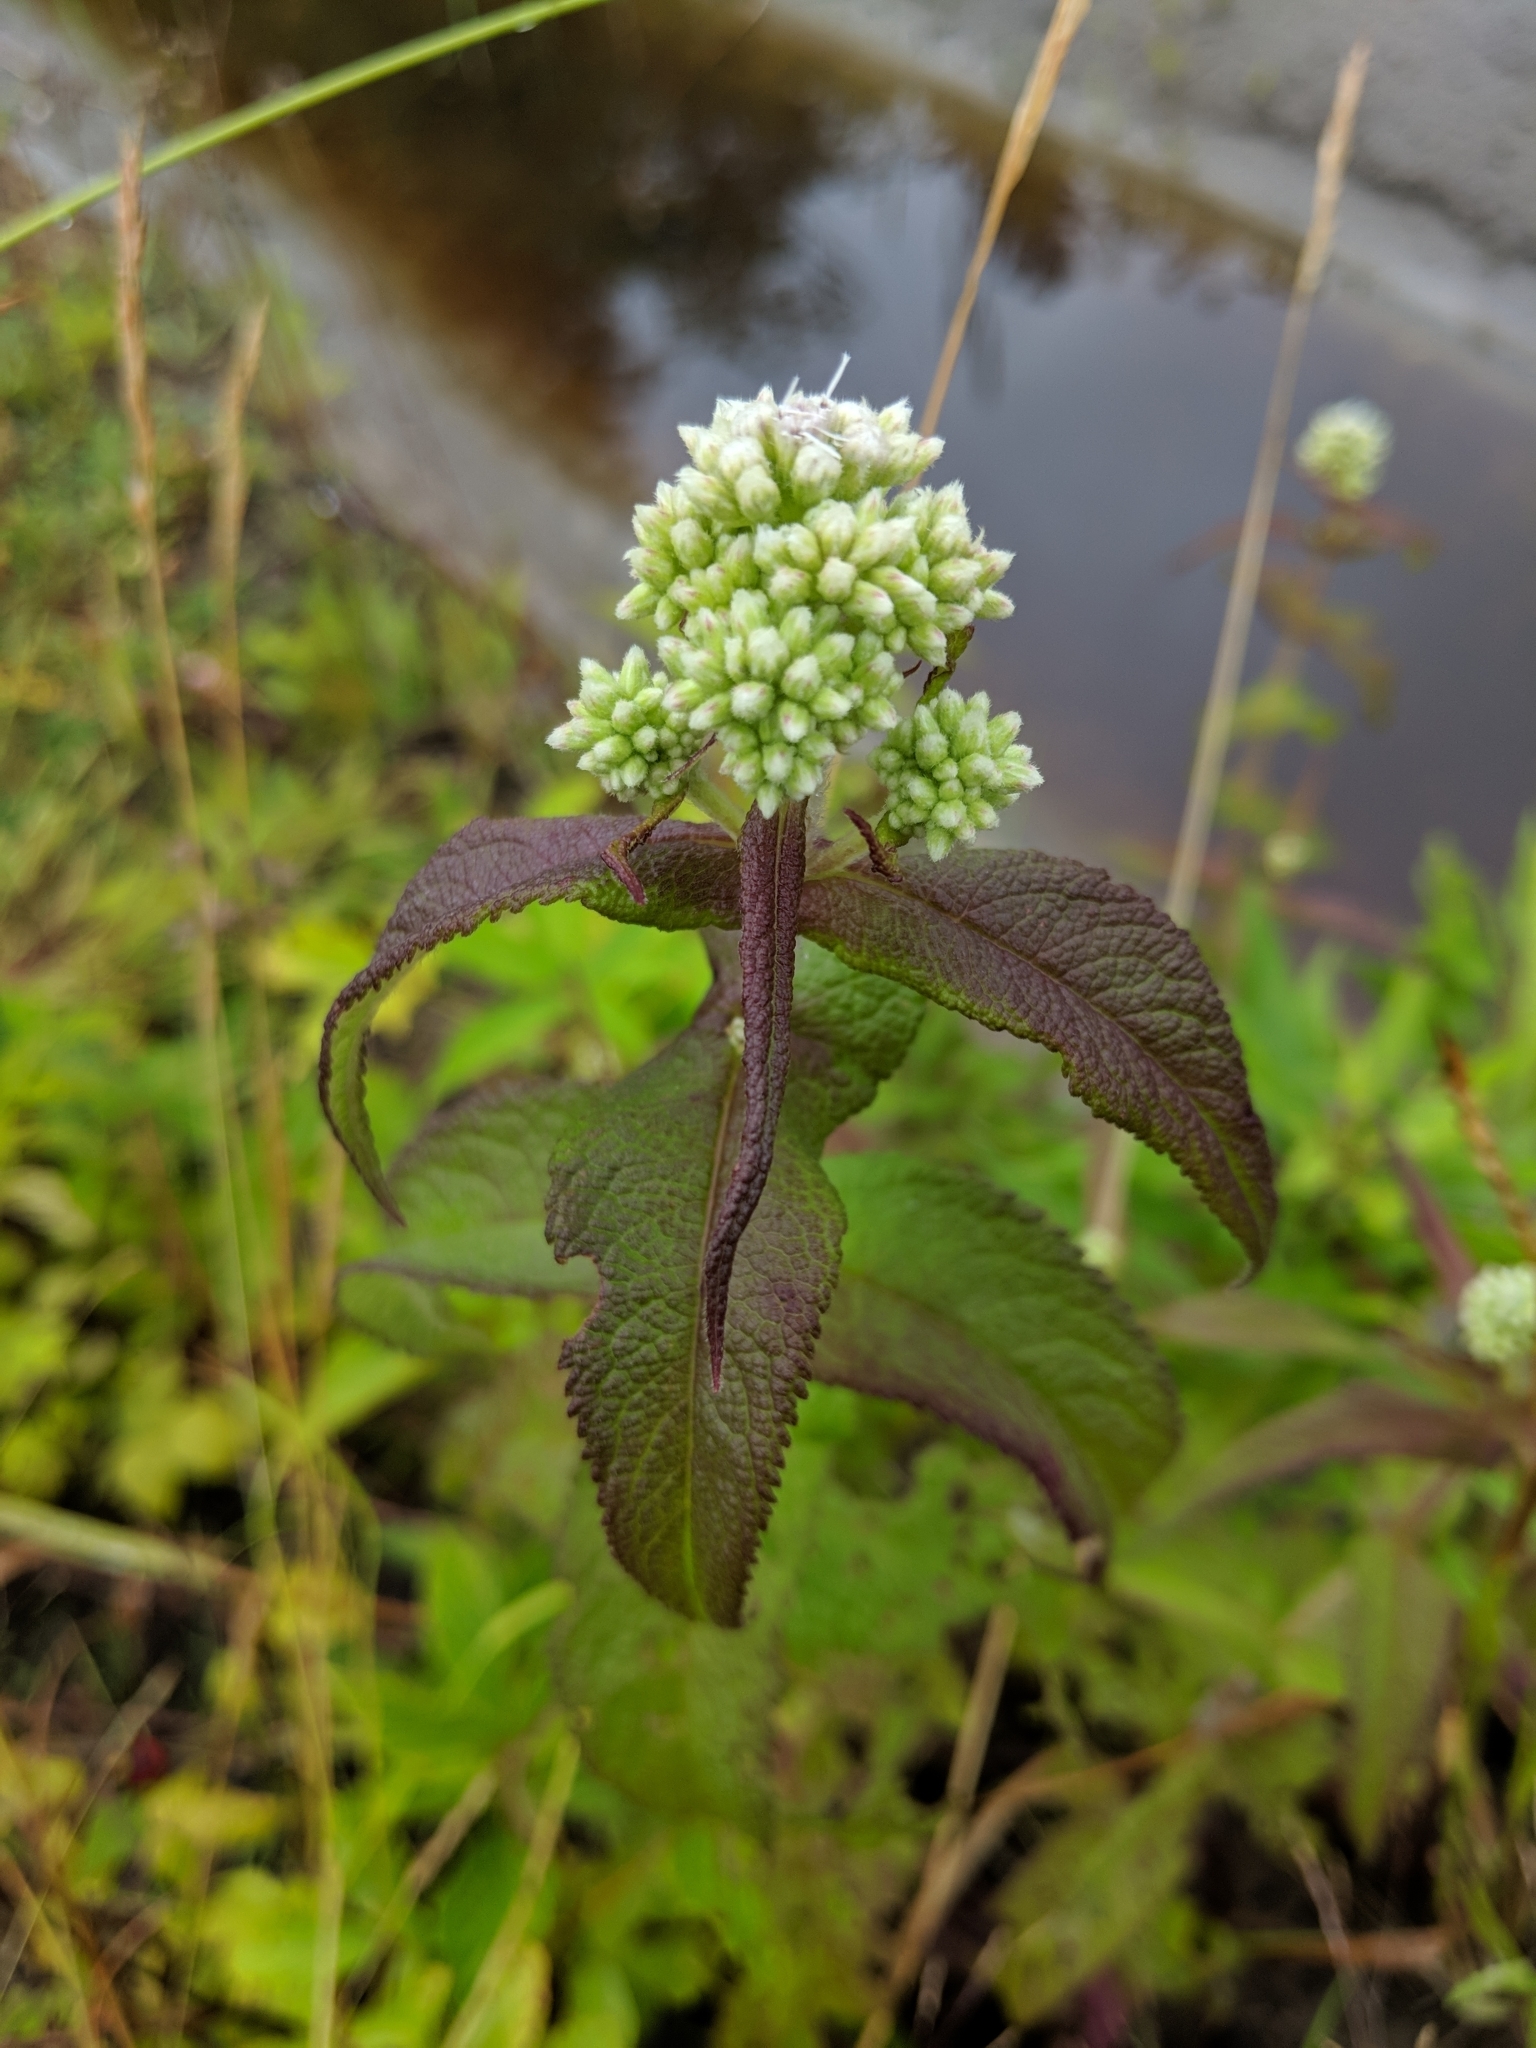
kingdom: Plantae
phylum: Tracheophyta
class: Magnoliopsida
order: Asterales
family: Asteraceae
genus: Eupatorium
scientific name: Eupatorium perfoliatum
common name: Boneset
